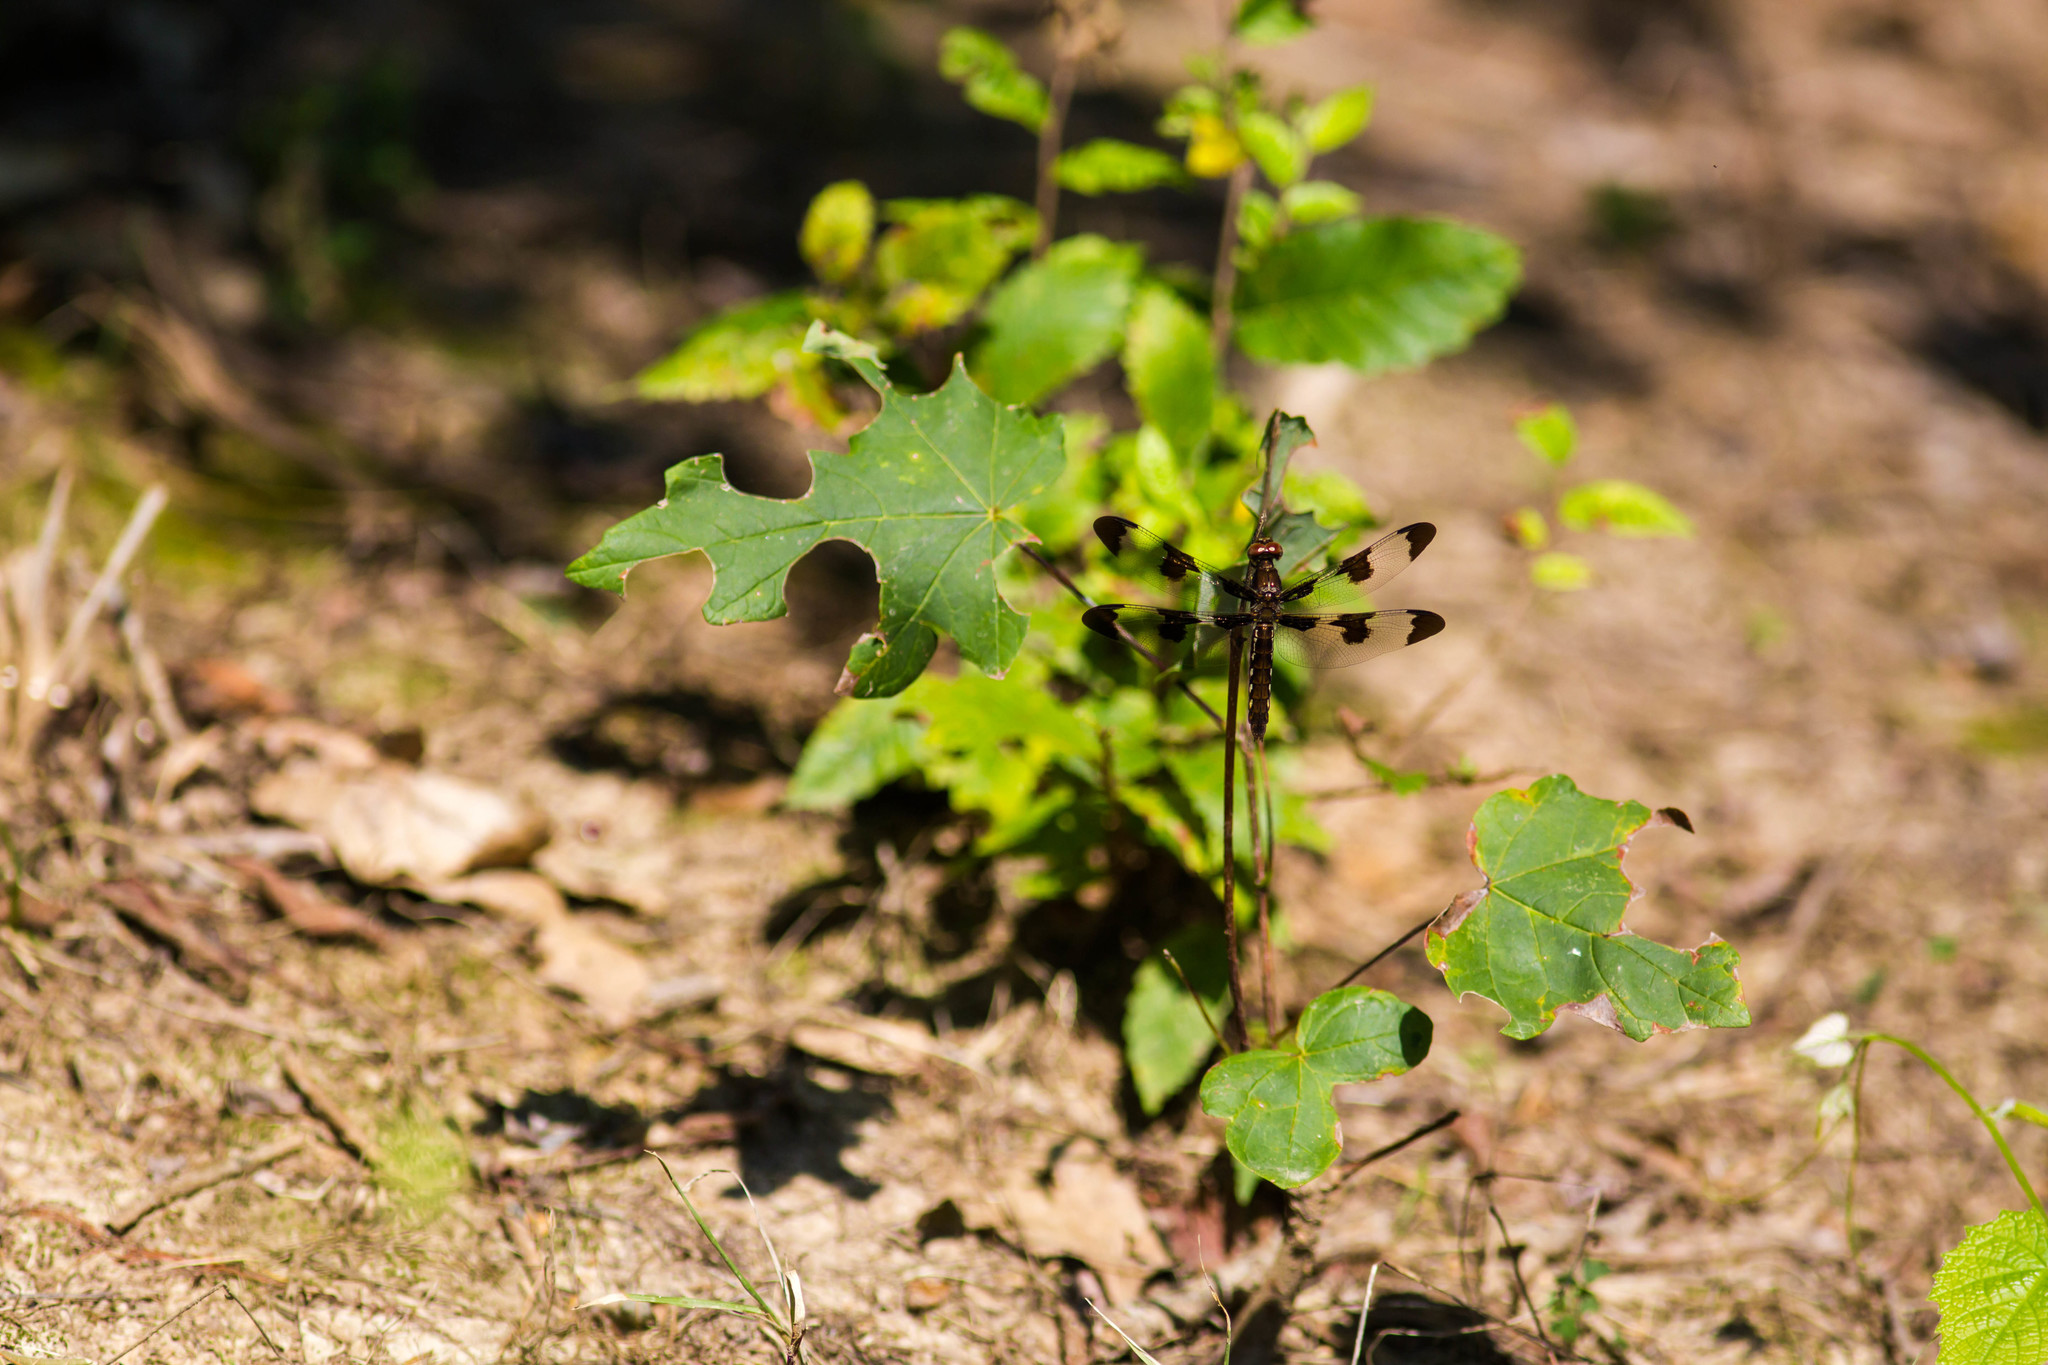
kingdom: Animalia
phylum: Arthropoda
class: Insecta
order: Odonata
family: Libellulidae
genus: Plathemis
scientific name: Plathemis lydia
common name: Common whitetail
